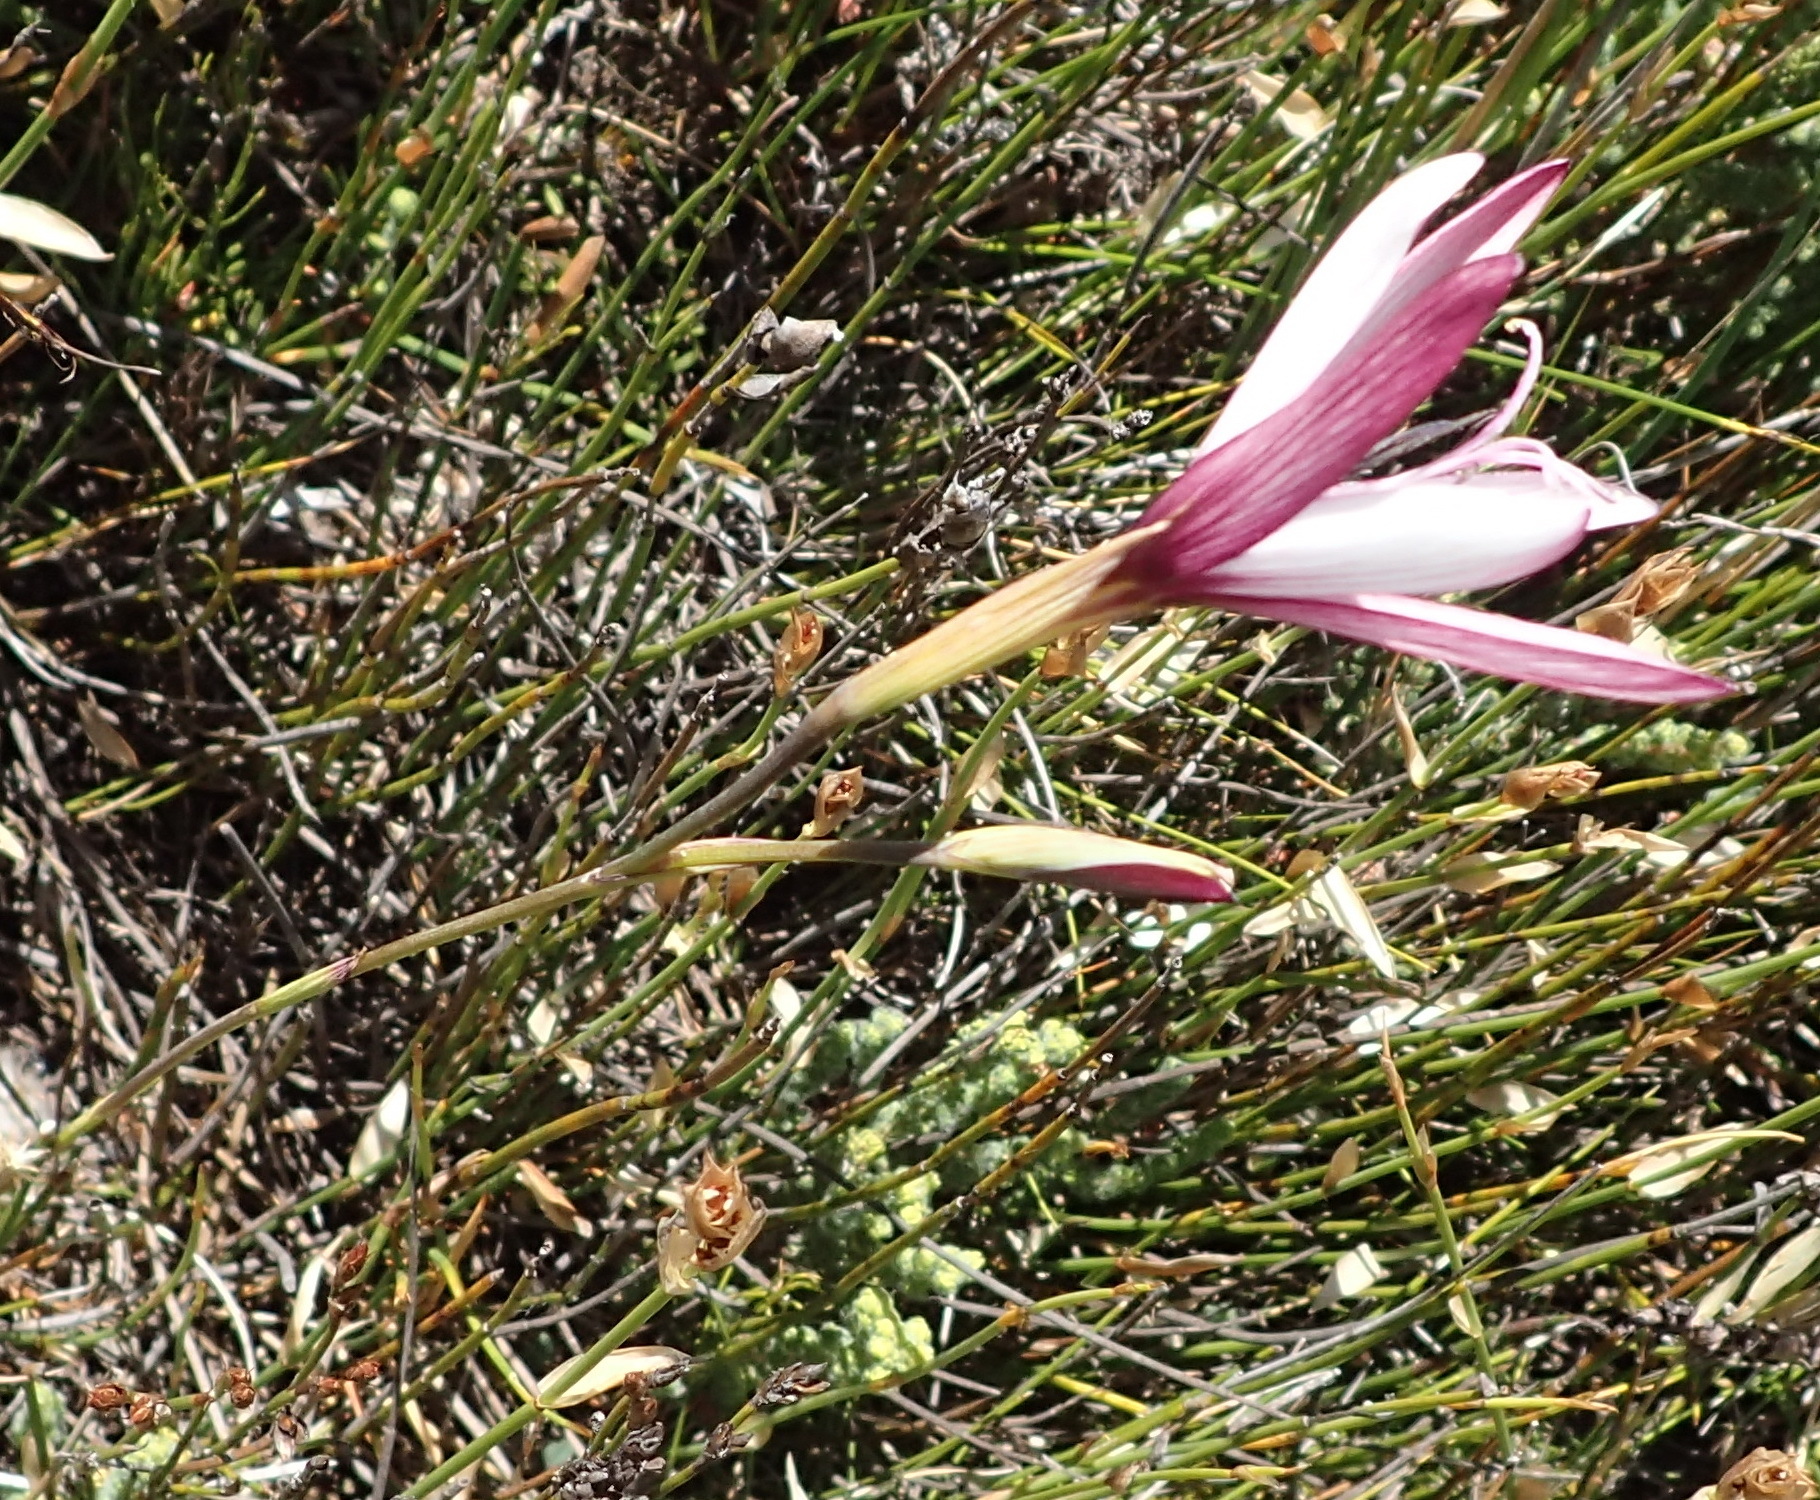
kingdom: Plantae
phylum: Tracheophyta
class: Liliopsida
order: Asparagales
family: Iridaceae
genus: Geissorhiza
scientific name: Geissorhiza fourcadei
